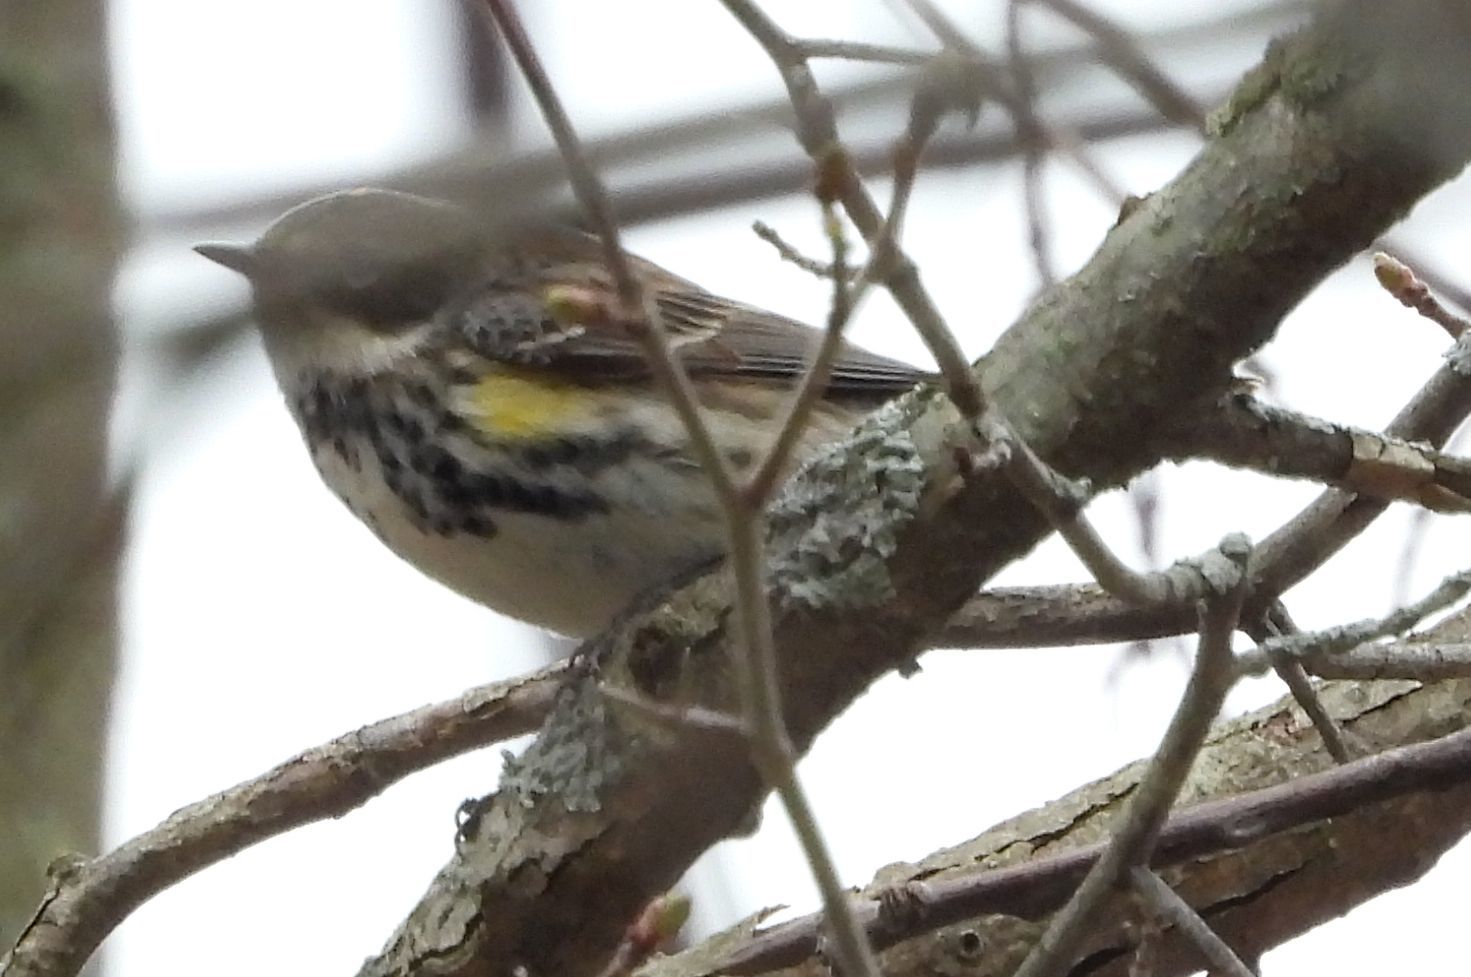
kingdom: Animalia
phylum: Chordata
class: Aves
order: Passeriformes
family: Parulidae
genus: Setophaga
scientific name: Setophaga coronata
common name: Myrtle warbler
